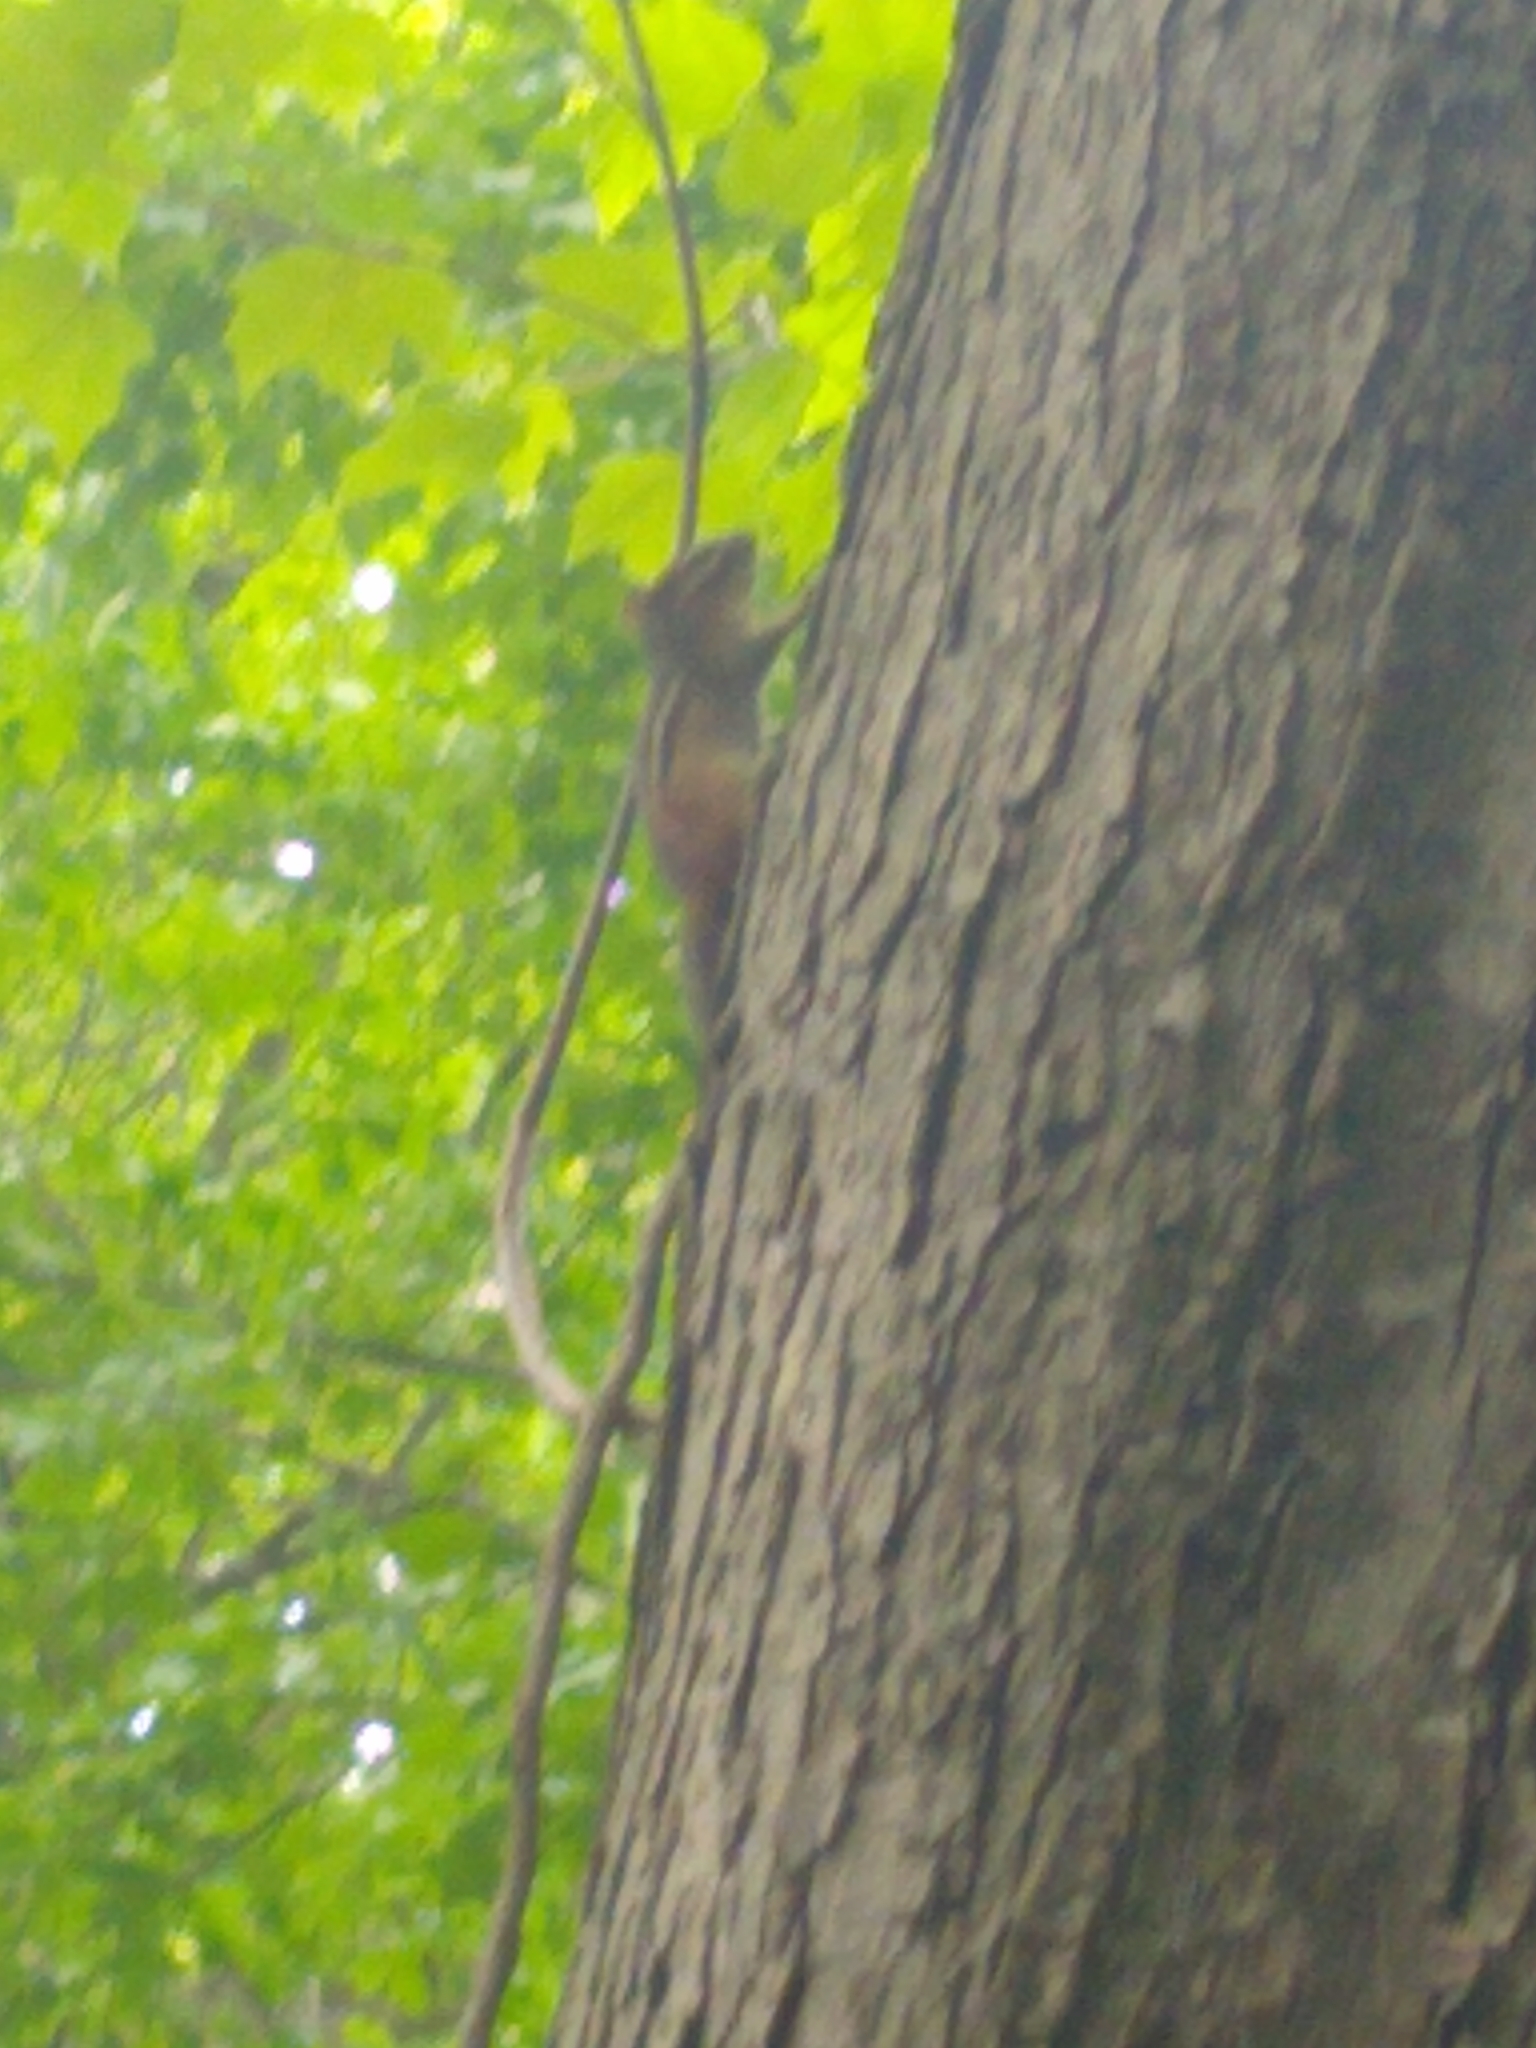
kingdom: Animalia
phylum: Chordata
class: Mammalia
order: Rodentia
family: Sciuridae
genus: Tamias
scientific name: Tamias striatus
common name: Eastern chipmunk
